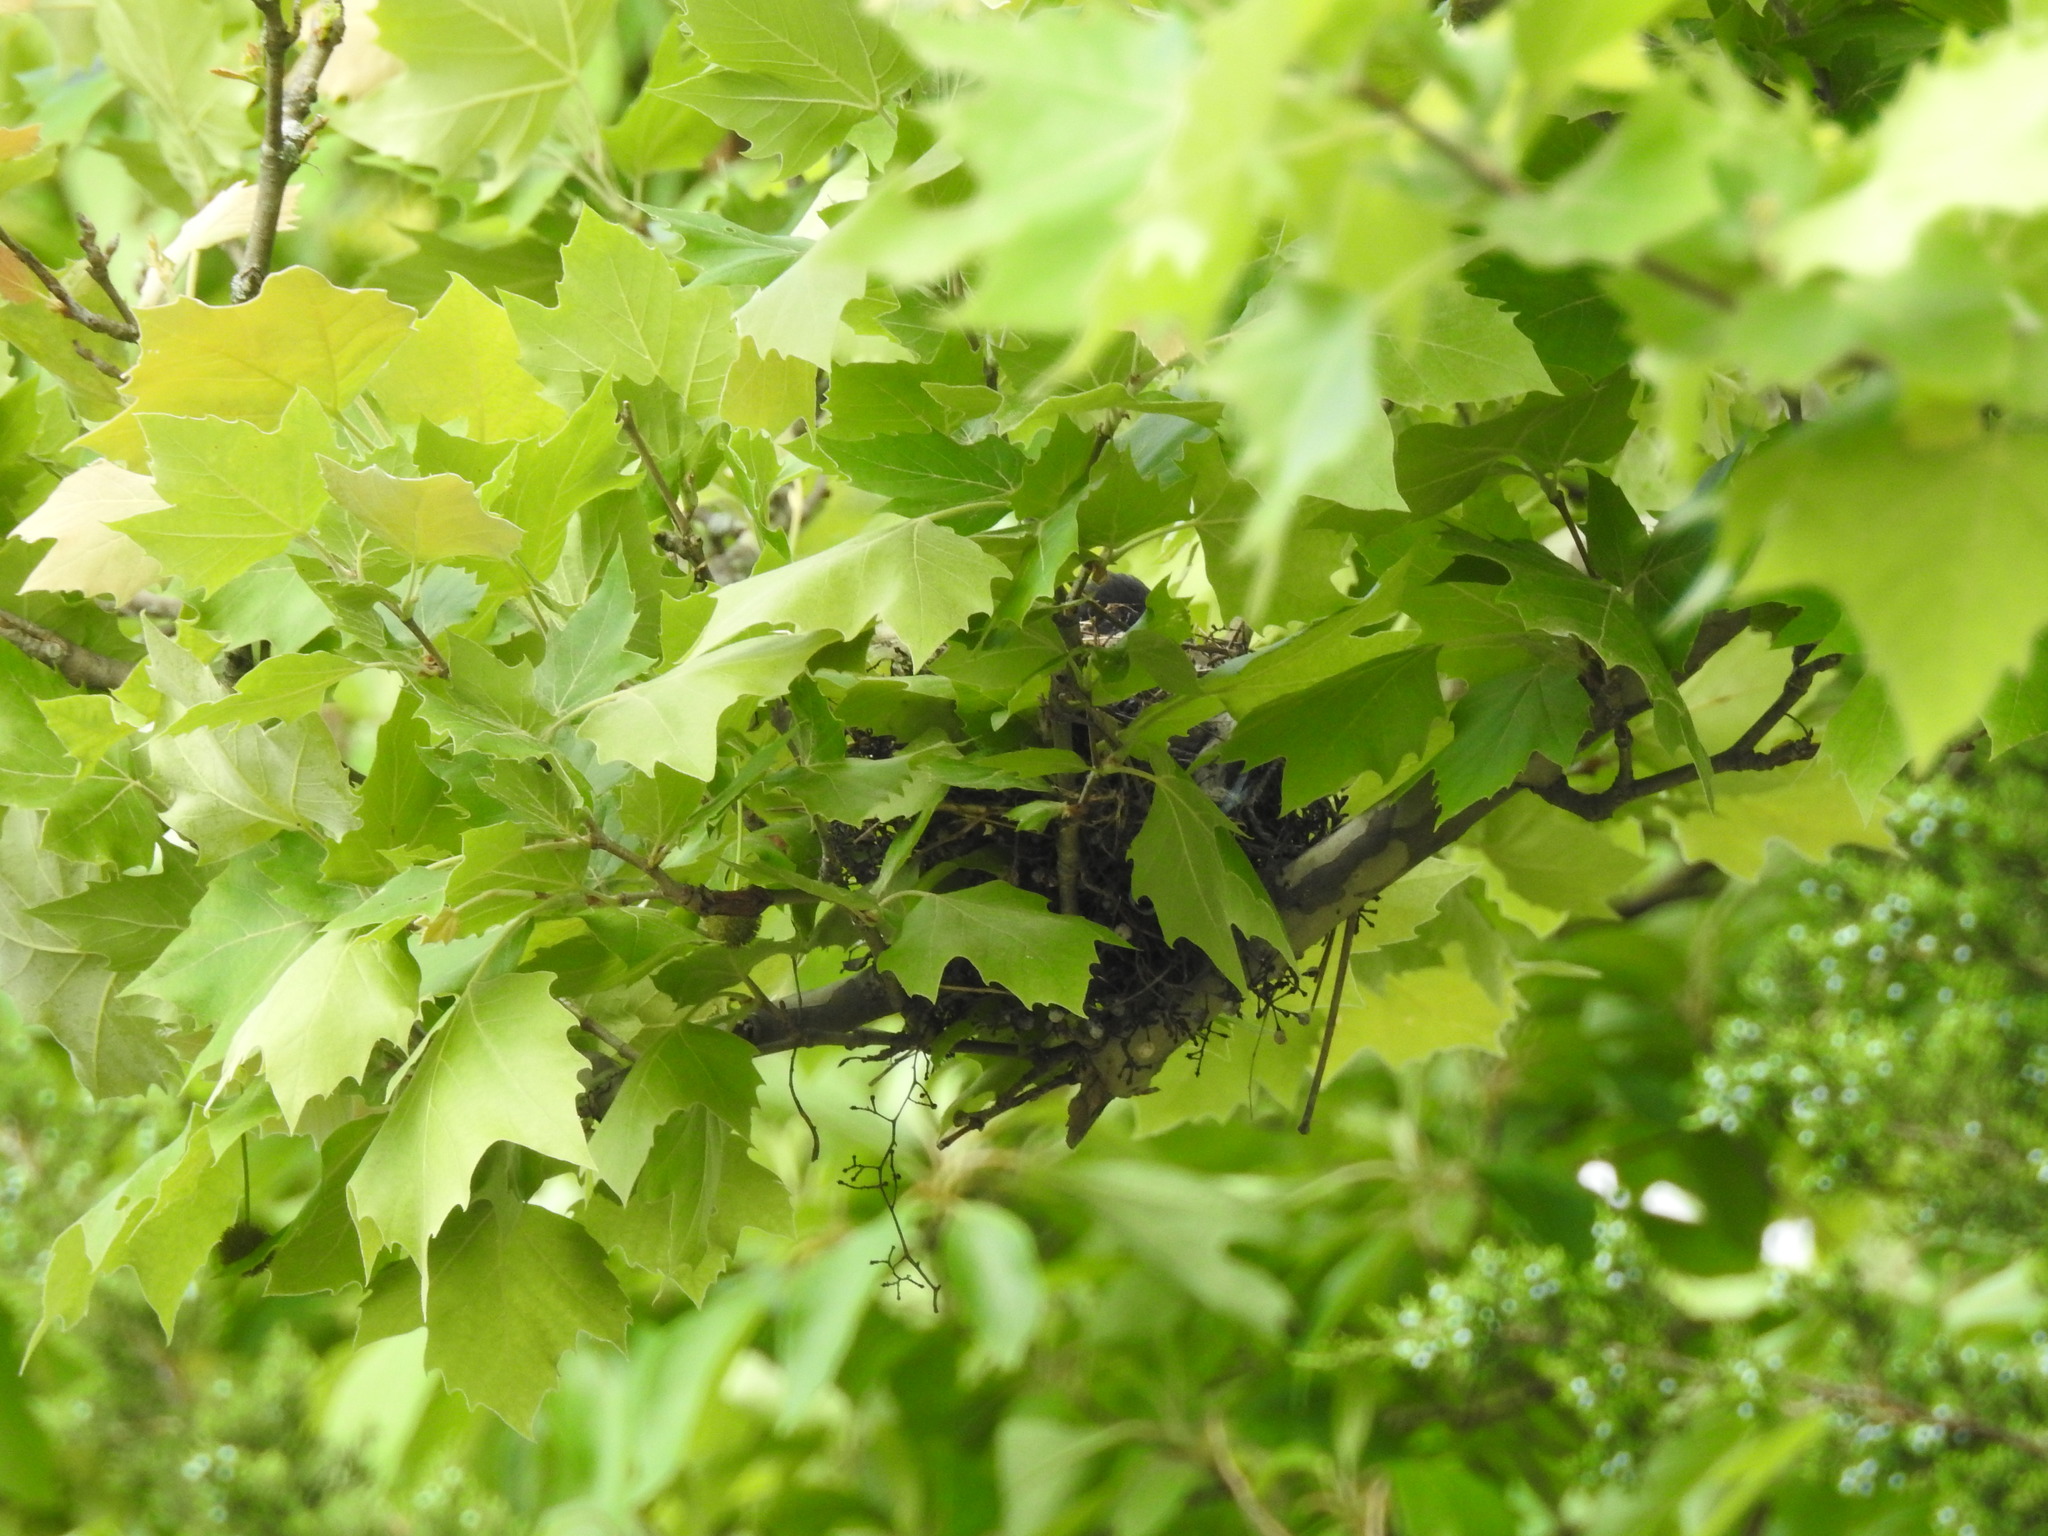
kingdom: Animalia
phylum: Chordata
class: Aves
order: Passeriformes
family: Tyrannidae
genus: Tyrannus
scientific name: Tyrannus tyrannus
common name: Eastern kingbird
